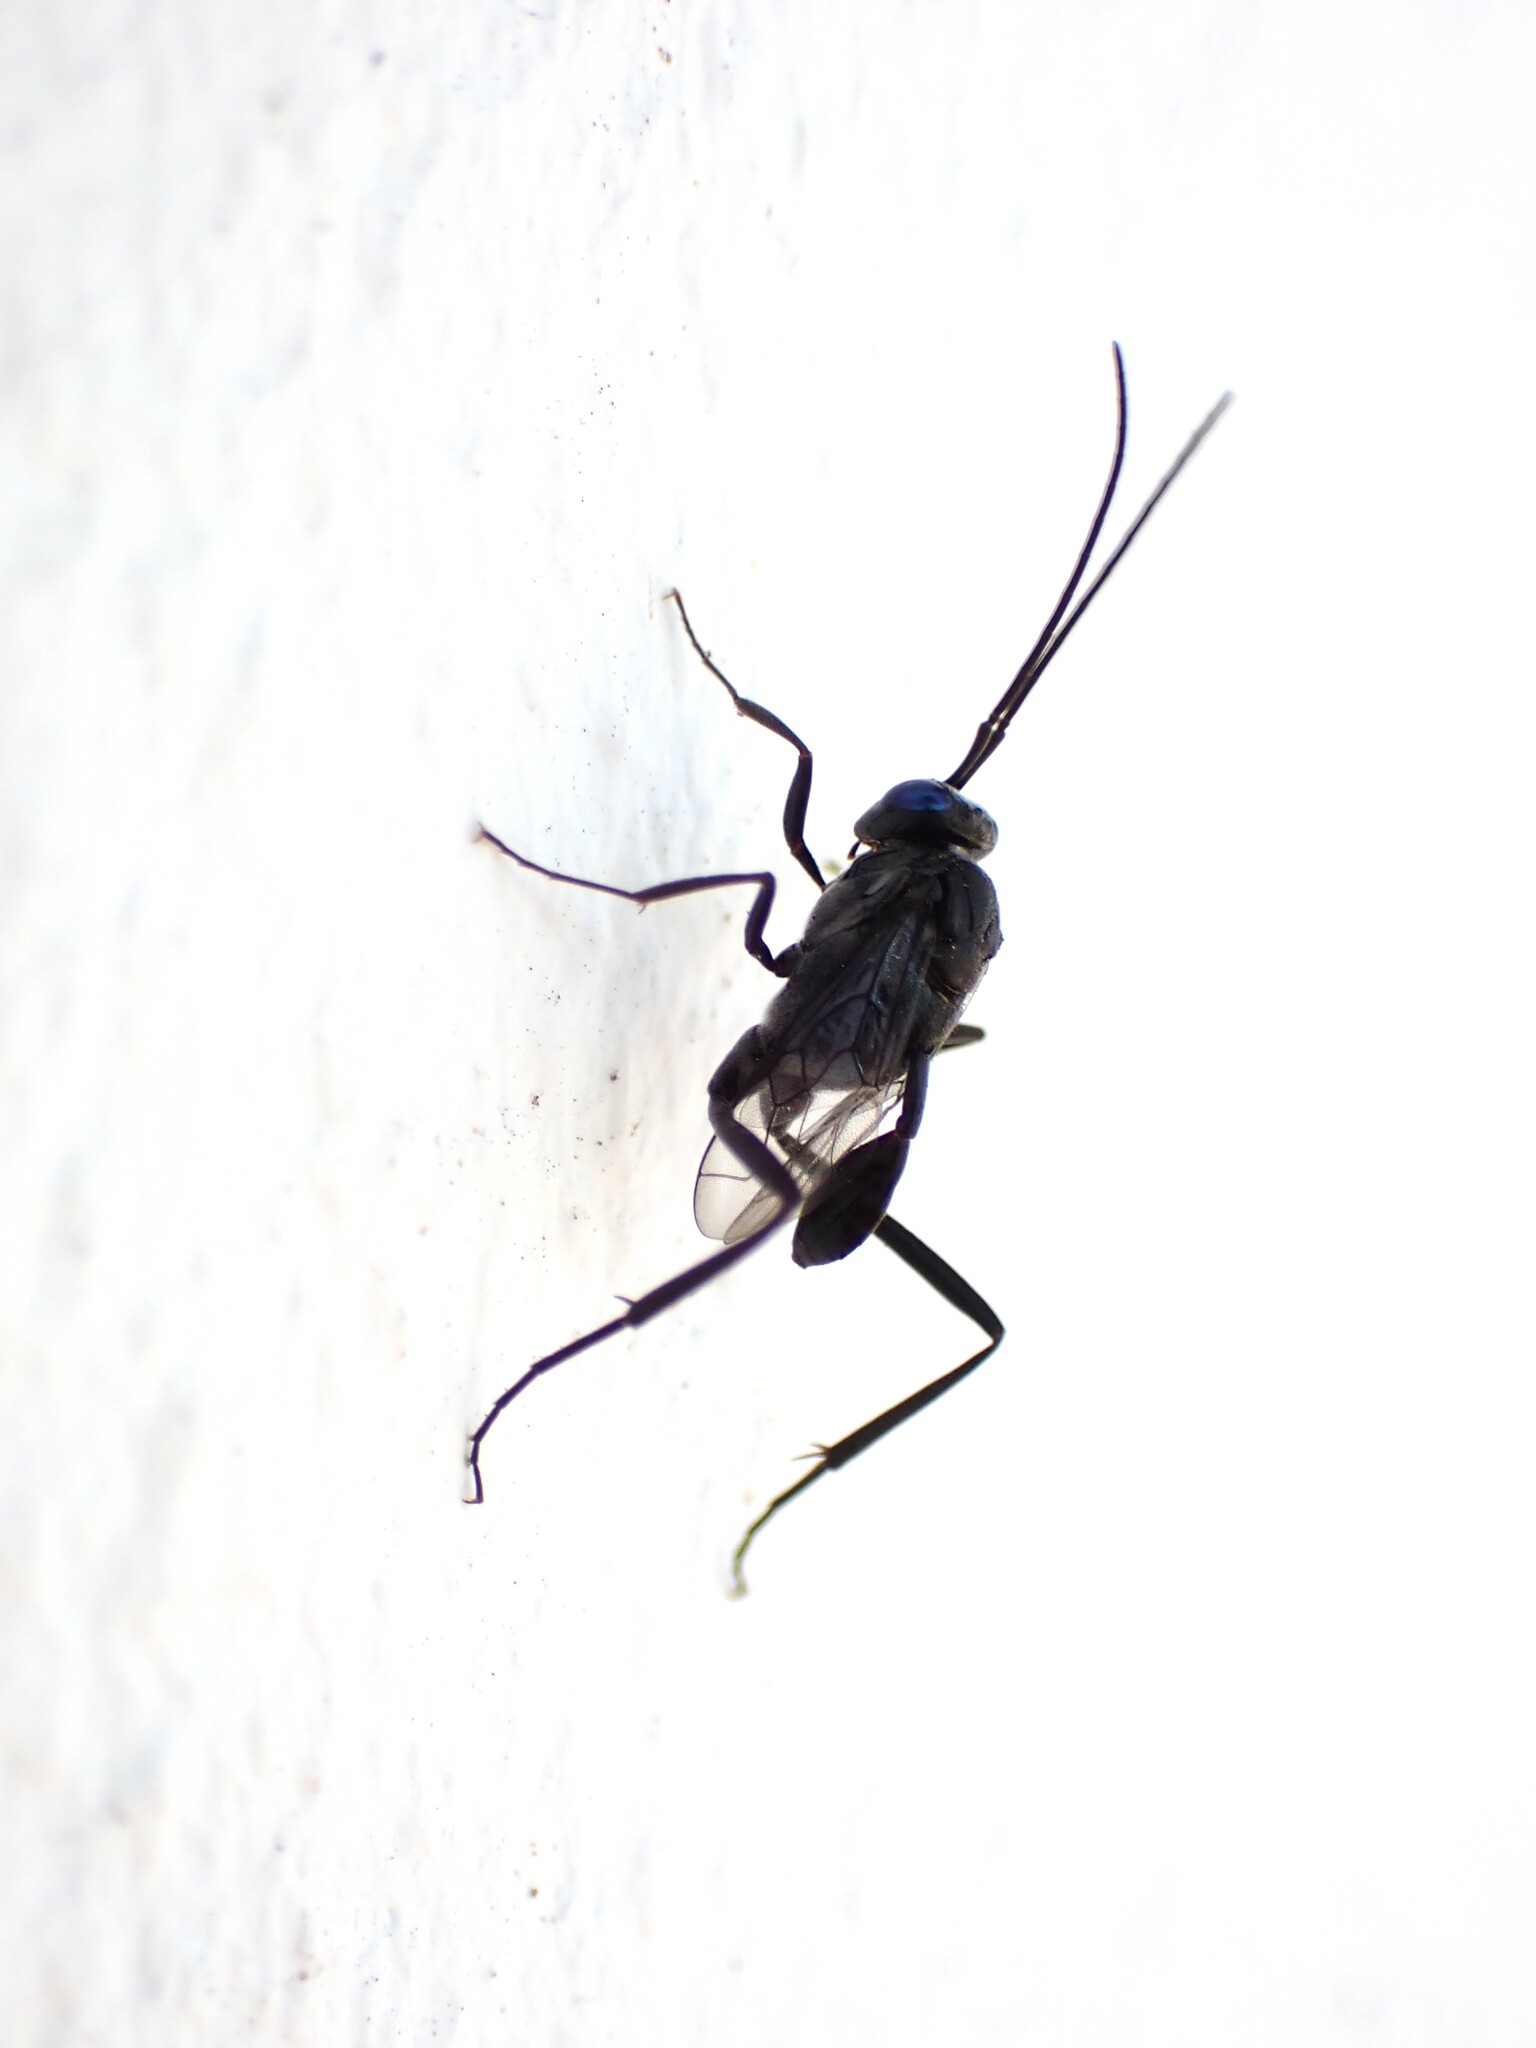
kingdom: Animalia
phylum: Arthropoda
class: Insecta
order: Hymenoptera
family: Evaniidae
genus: Evania
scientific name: Evania appendigaster
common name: Ensign wasp
